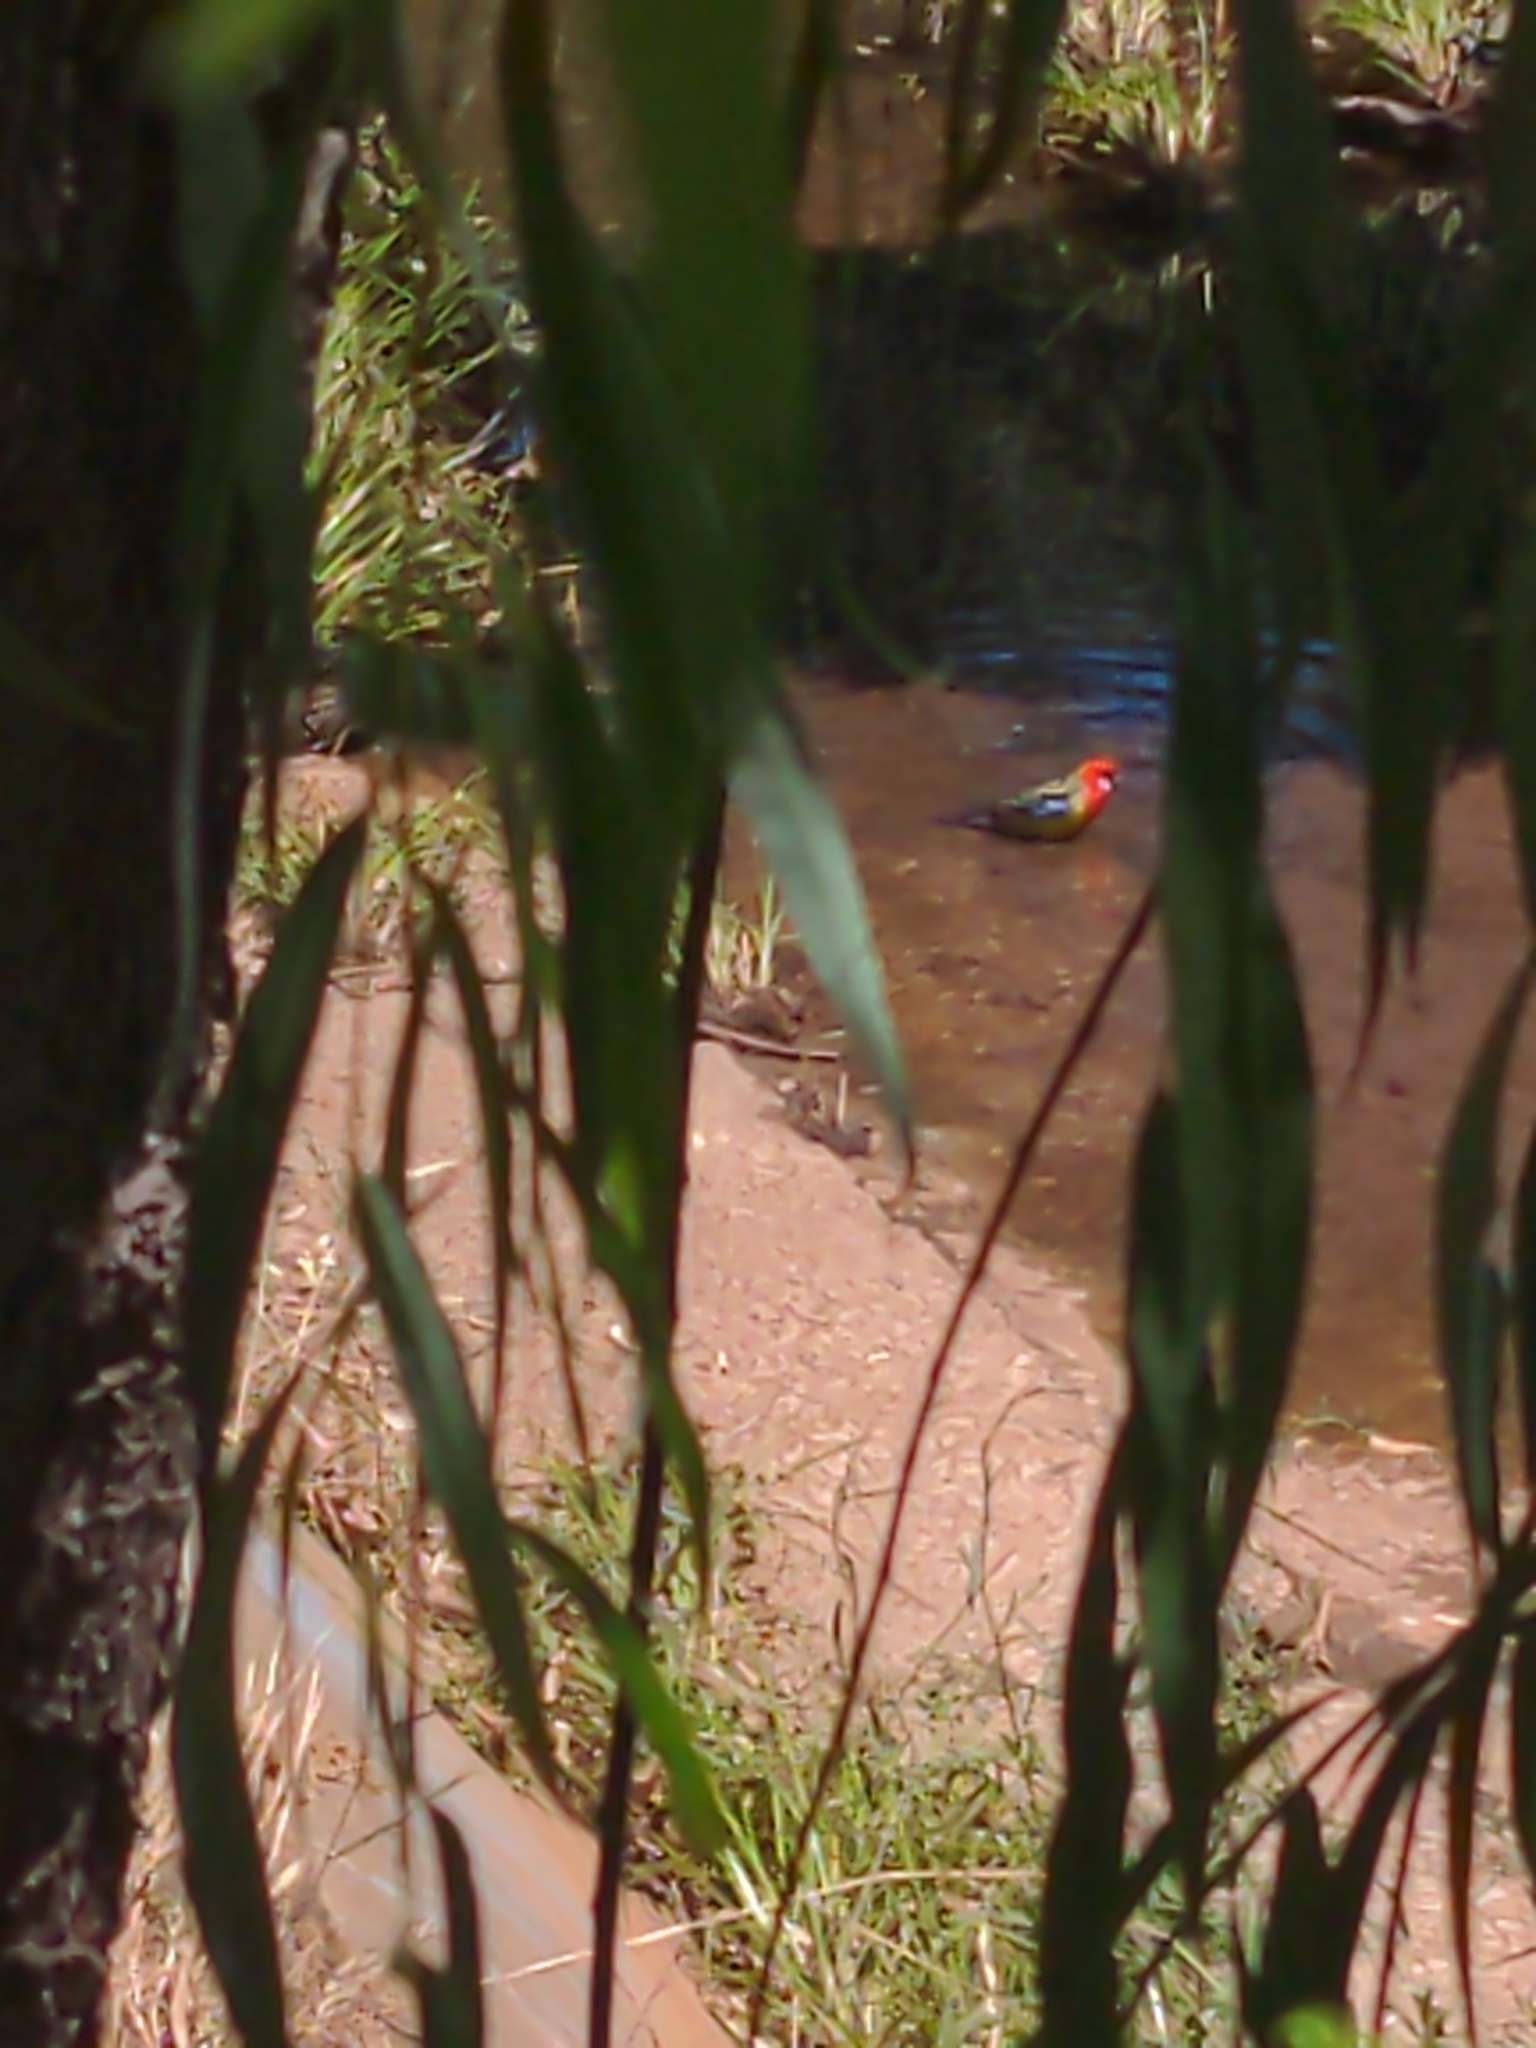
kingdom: Animalia
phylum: Chordata
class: Aves
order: Psittaciformes
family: Psittacidae
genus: Platycercus
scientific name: Platycercus eximius
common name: Eastern rosella
